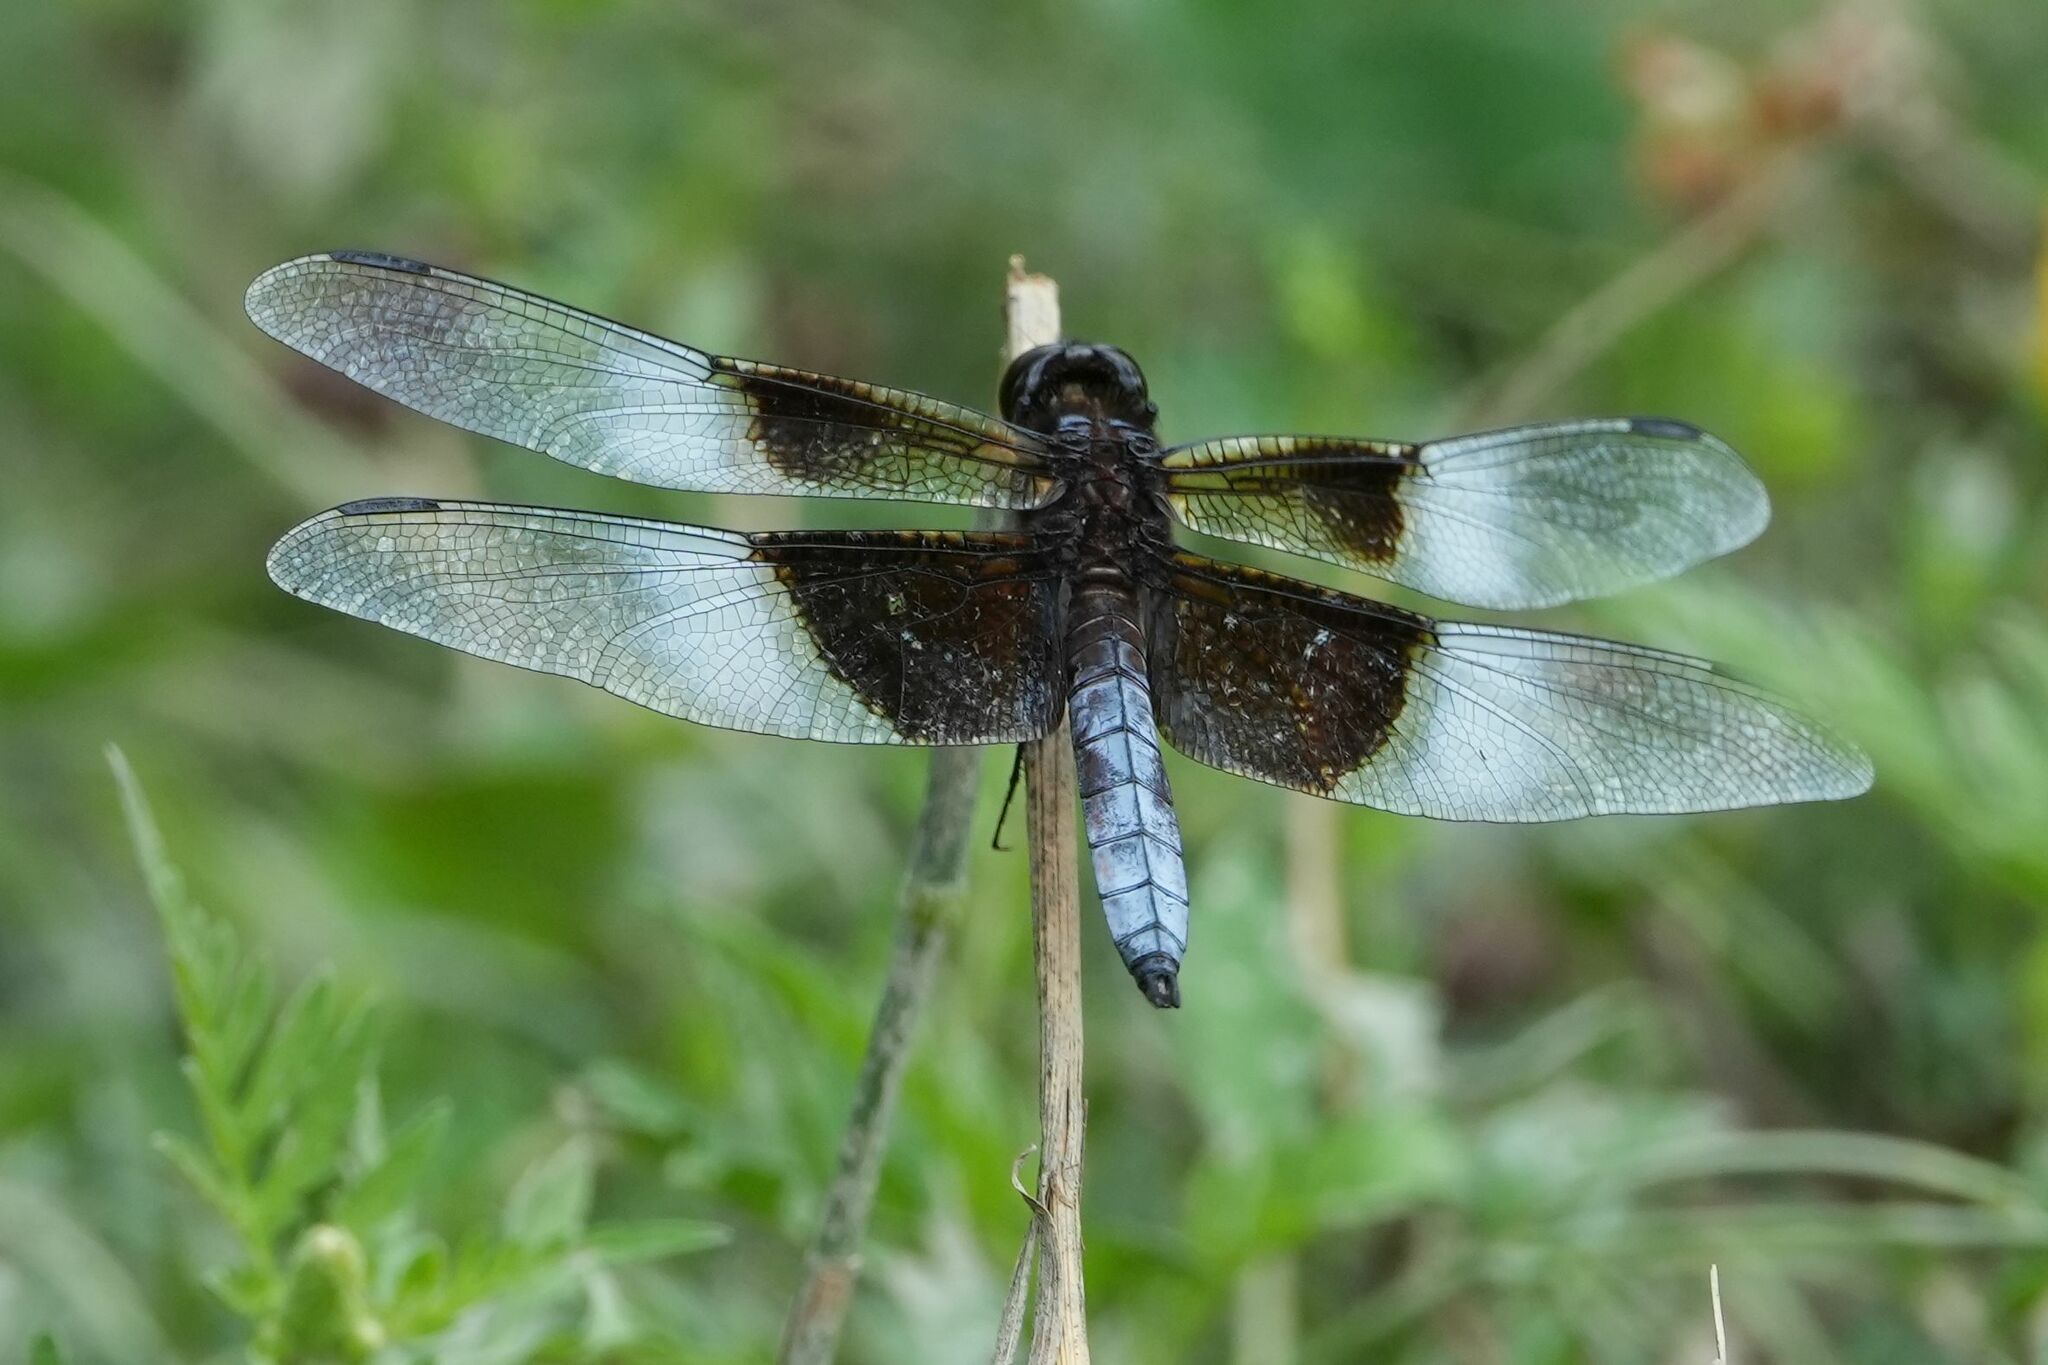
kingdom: Animalia
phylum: Arthropoda
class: Insecta
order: Odonata
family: Libellulidae
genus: Libellula
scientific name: Libellula luctuosa
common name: Widow skimmer
